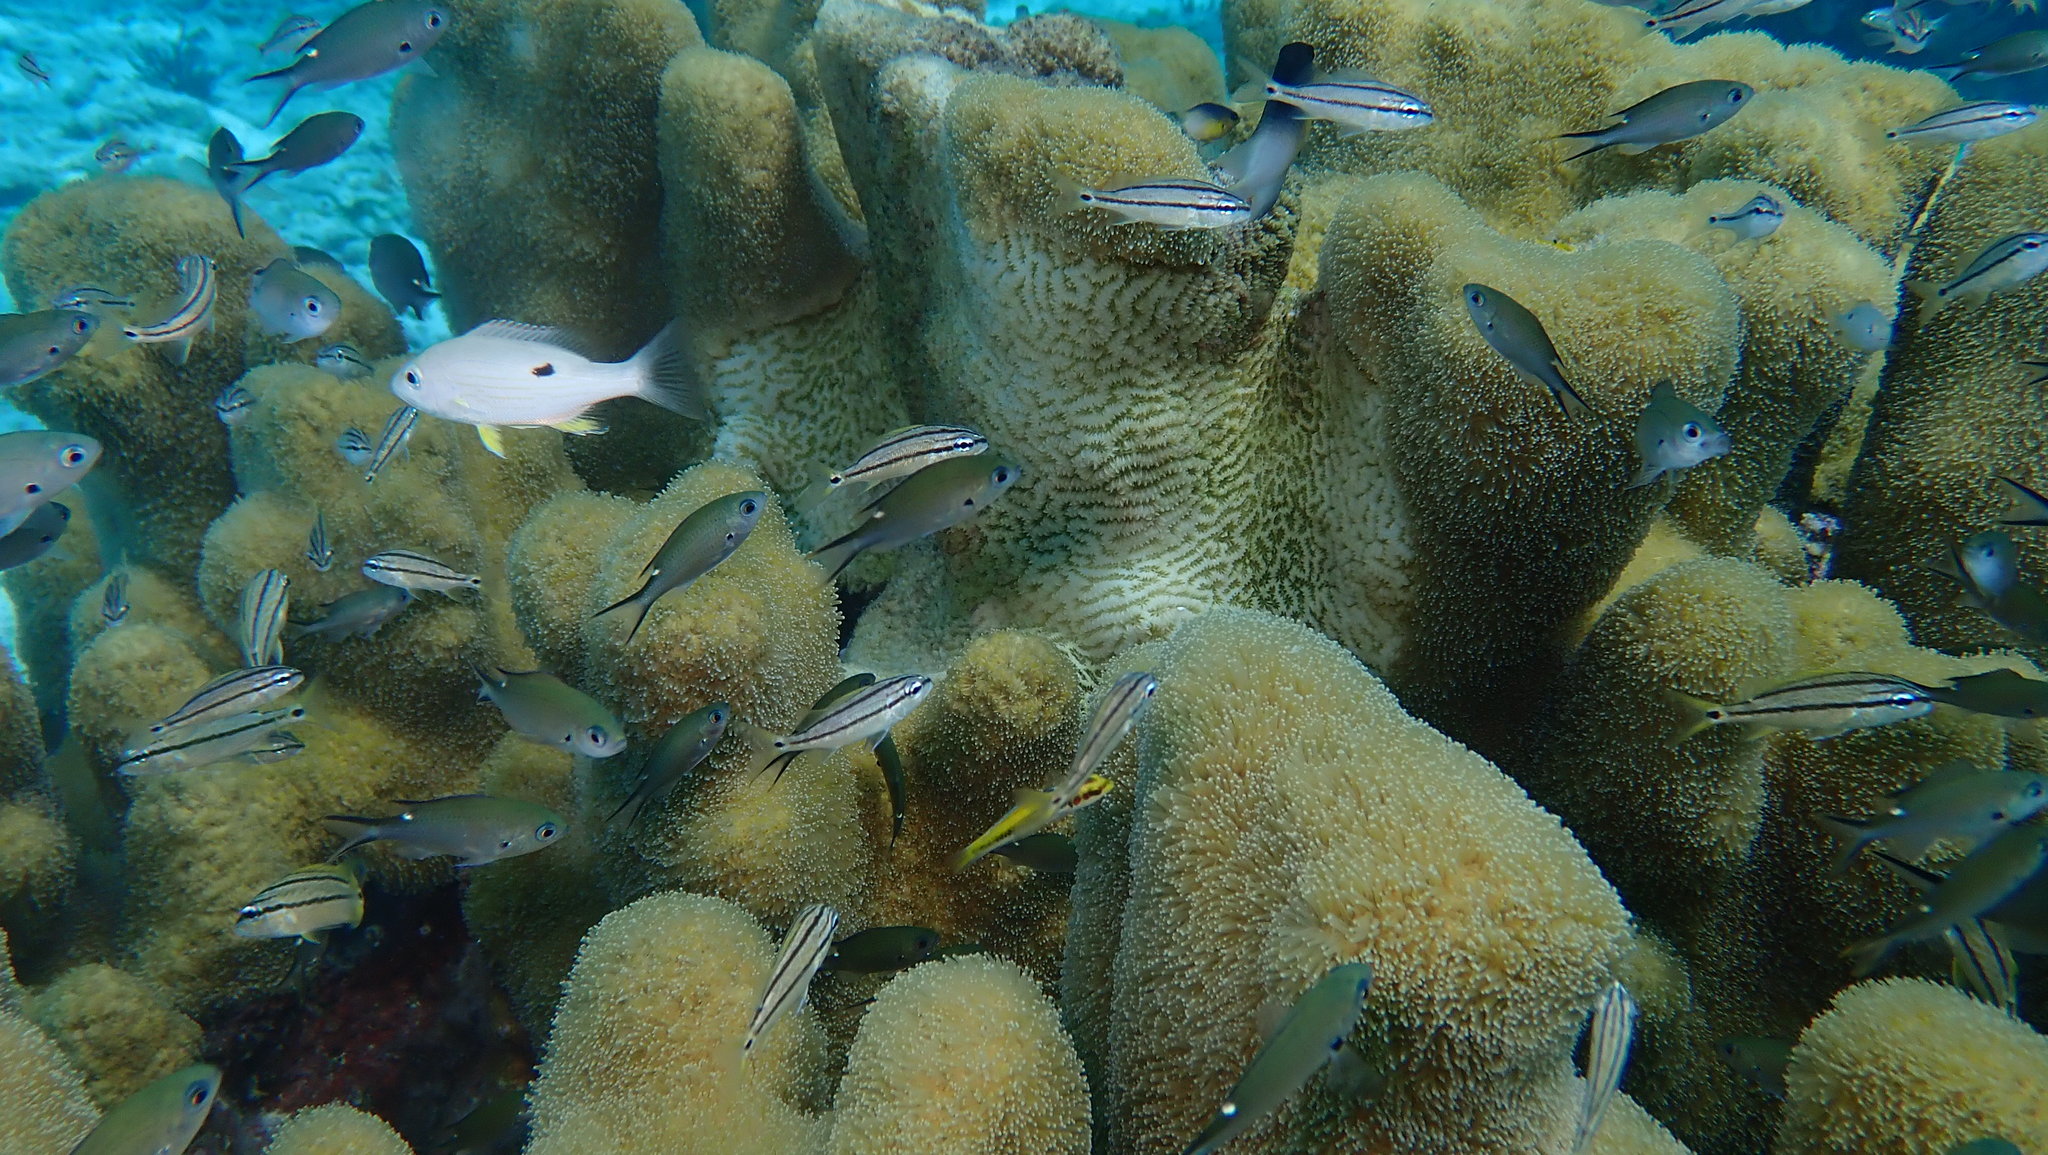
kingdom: Animalia
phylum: Cnidaria
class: Anthozoa
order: Scleractinia
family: Meandrinidae
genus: Dendrogyra
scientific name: Dendrogyra cylindrus
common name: Pillar coral
